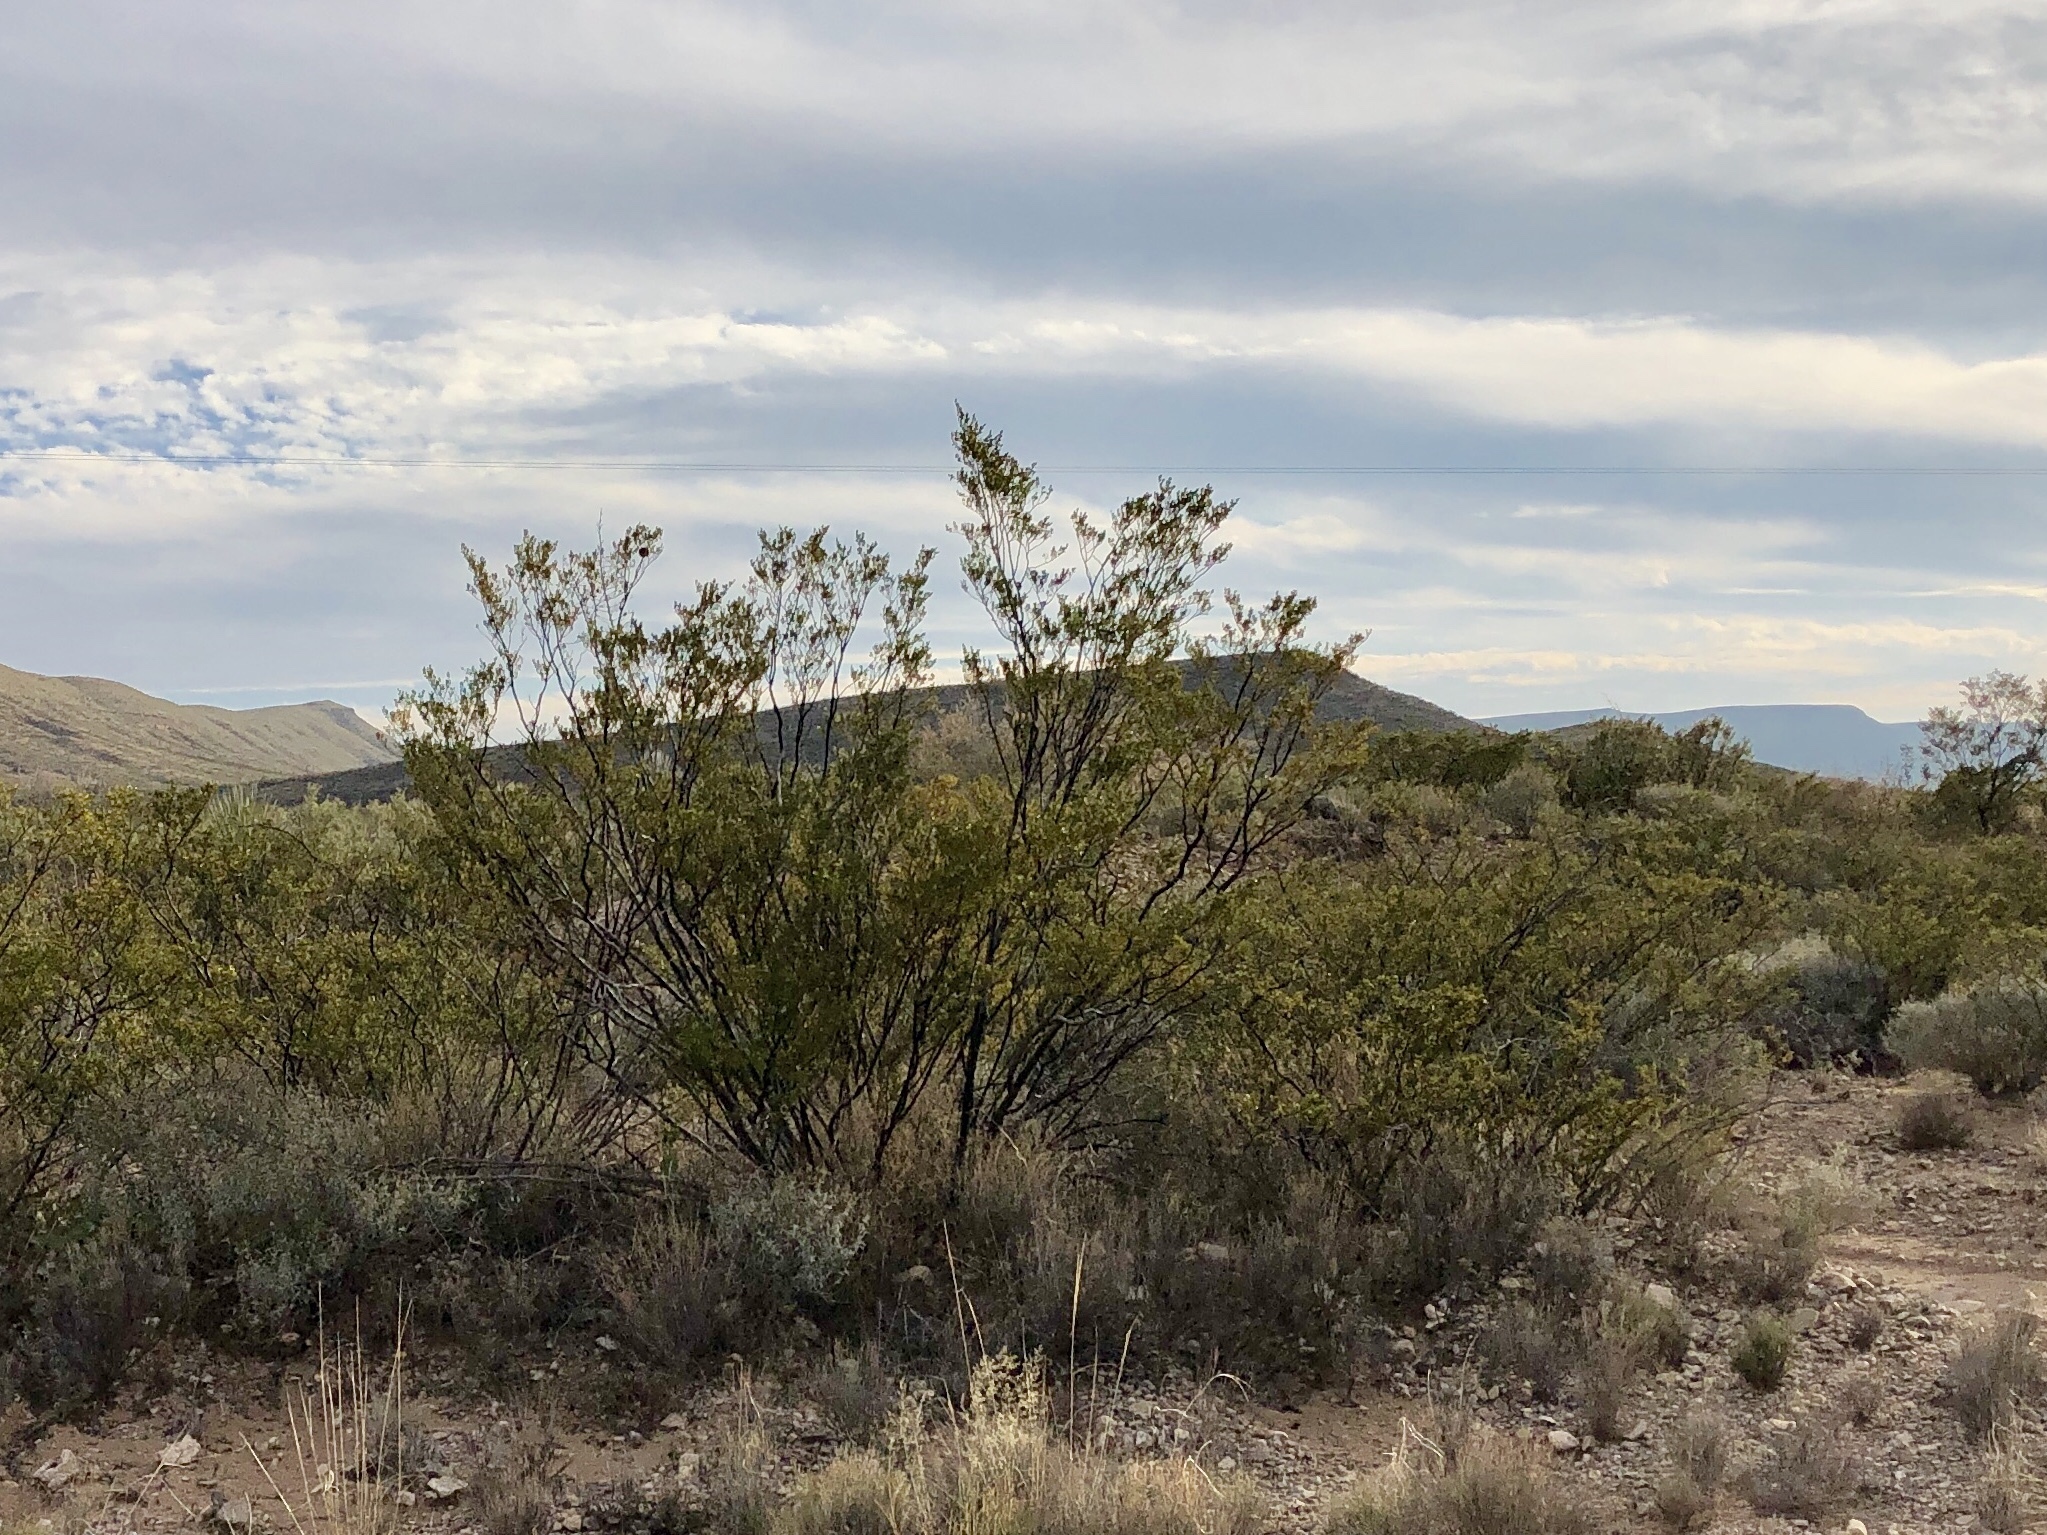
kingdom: Plantae
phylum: Tracheophyta
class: Magnoliopsida
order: Zygophyllales
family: Zygophyllaceae
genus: Larrea
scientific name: Larrea tridentata
